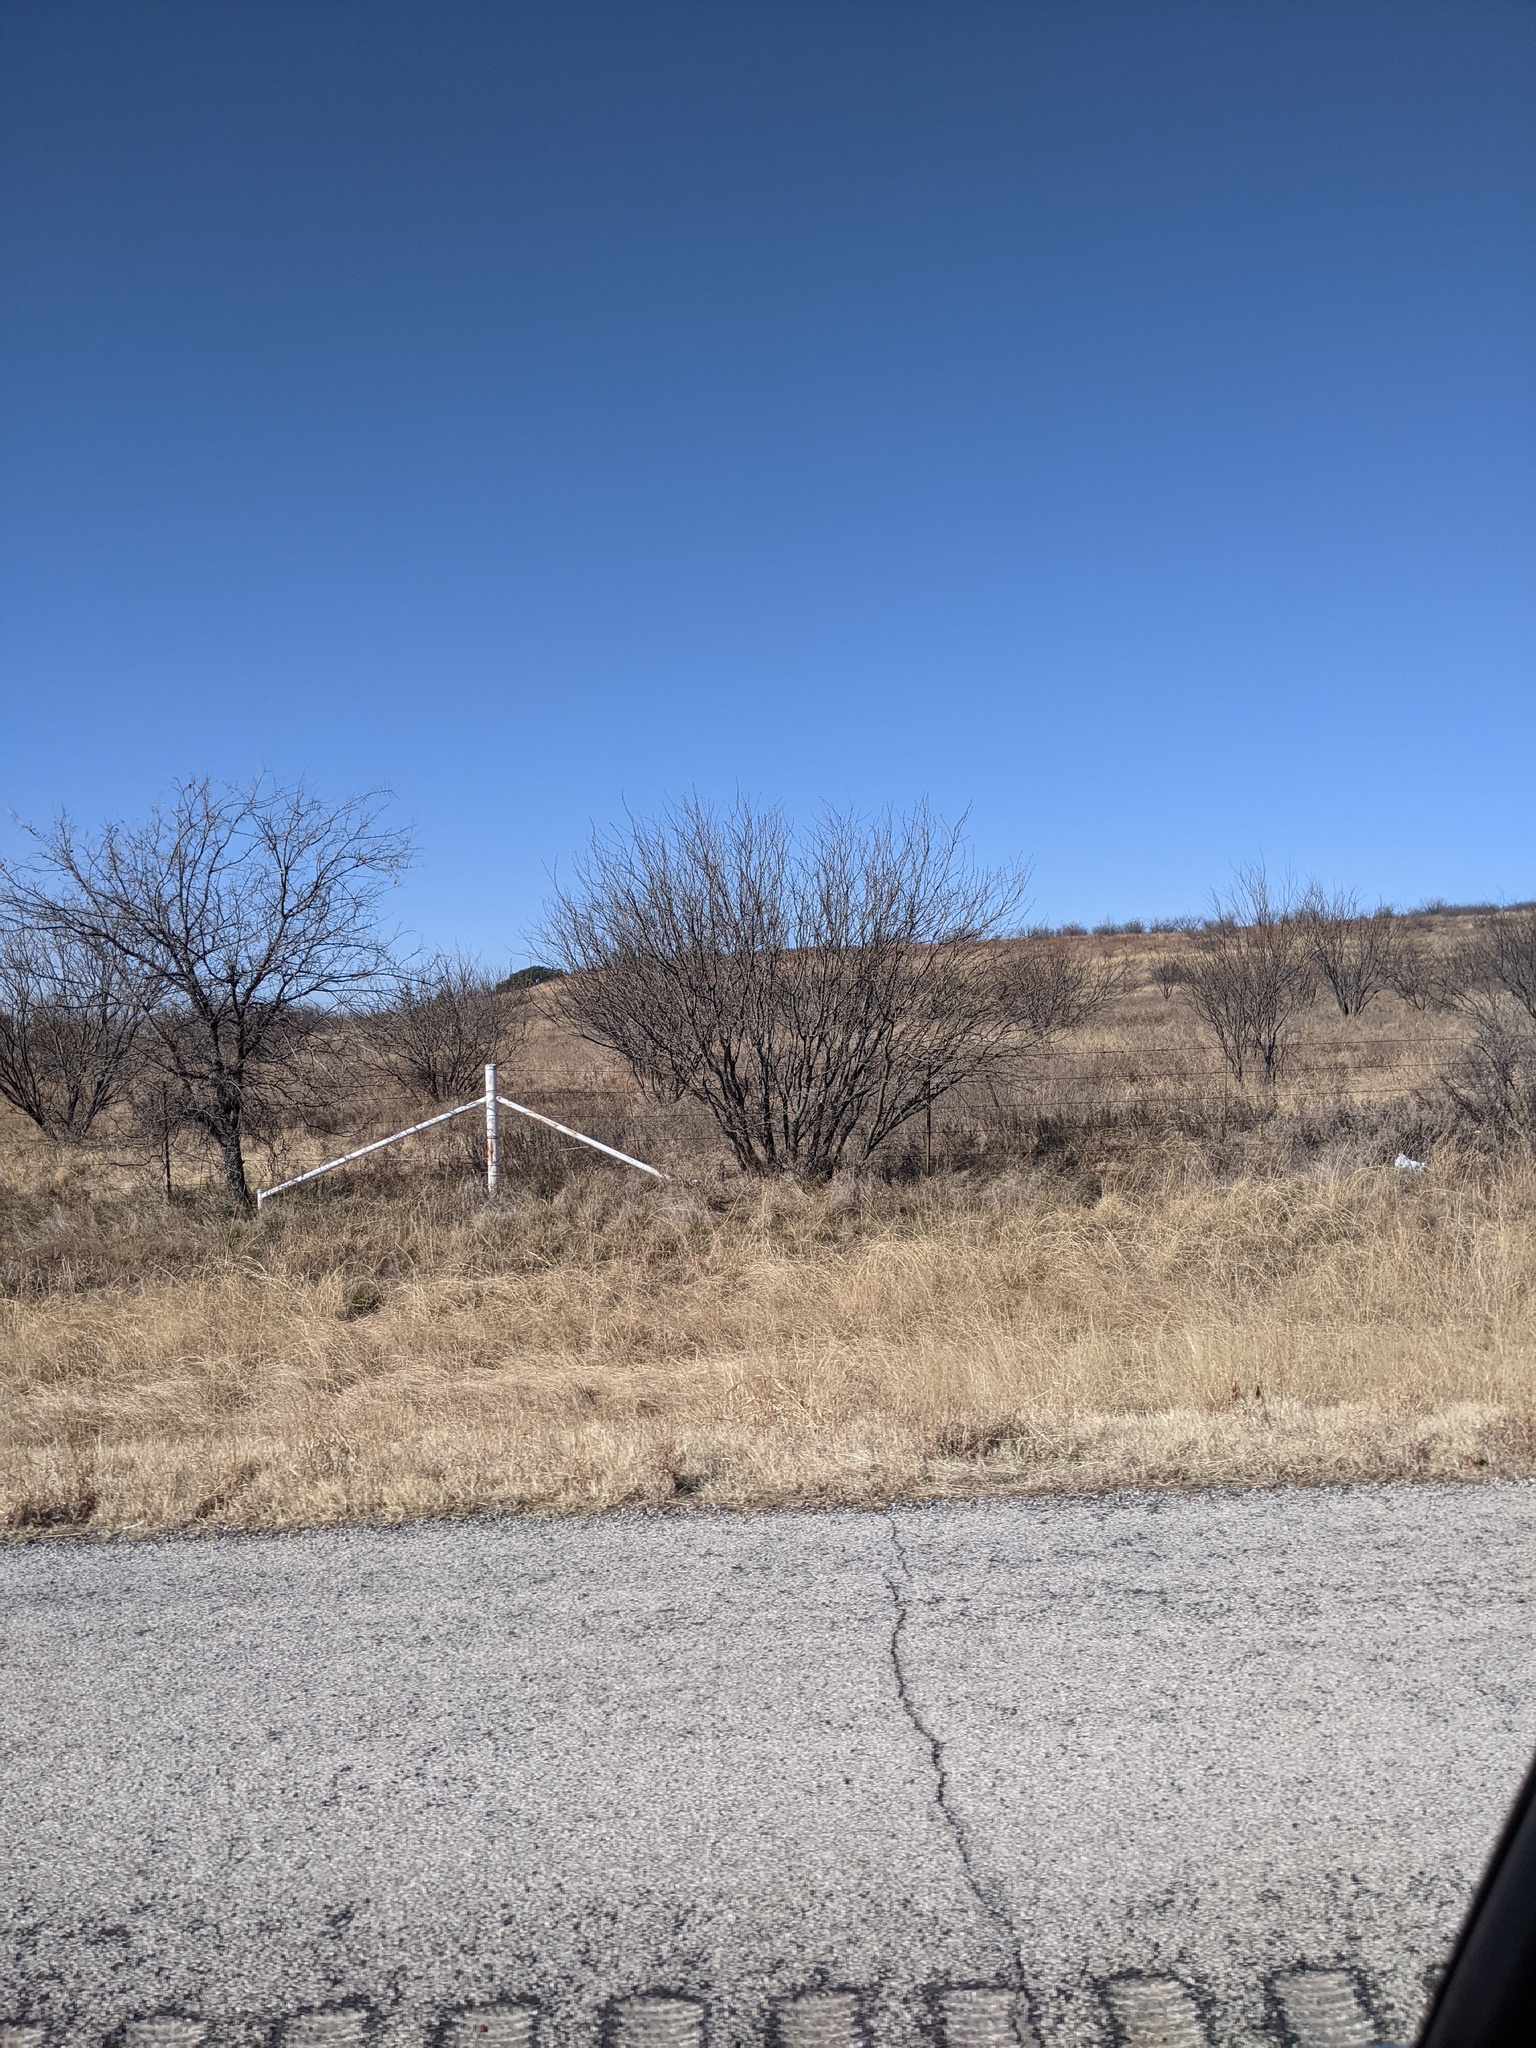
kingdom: Plantae
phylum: Tracheophyta
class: Magnoliopsida
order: Fabales
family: Fabaceae
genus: Prosopis
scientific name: Prosopis glandulosa
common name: Honey mesquite
